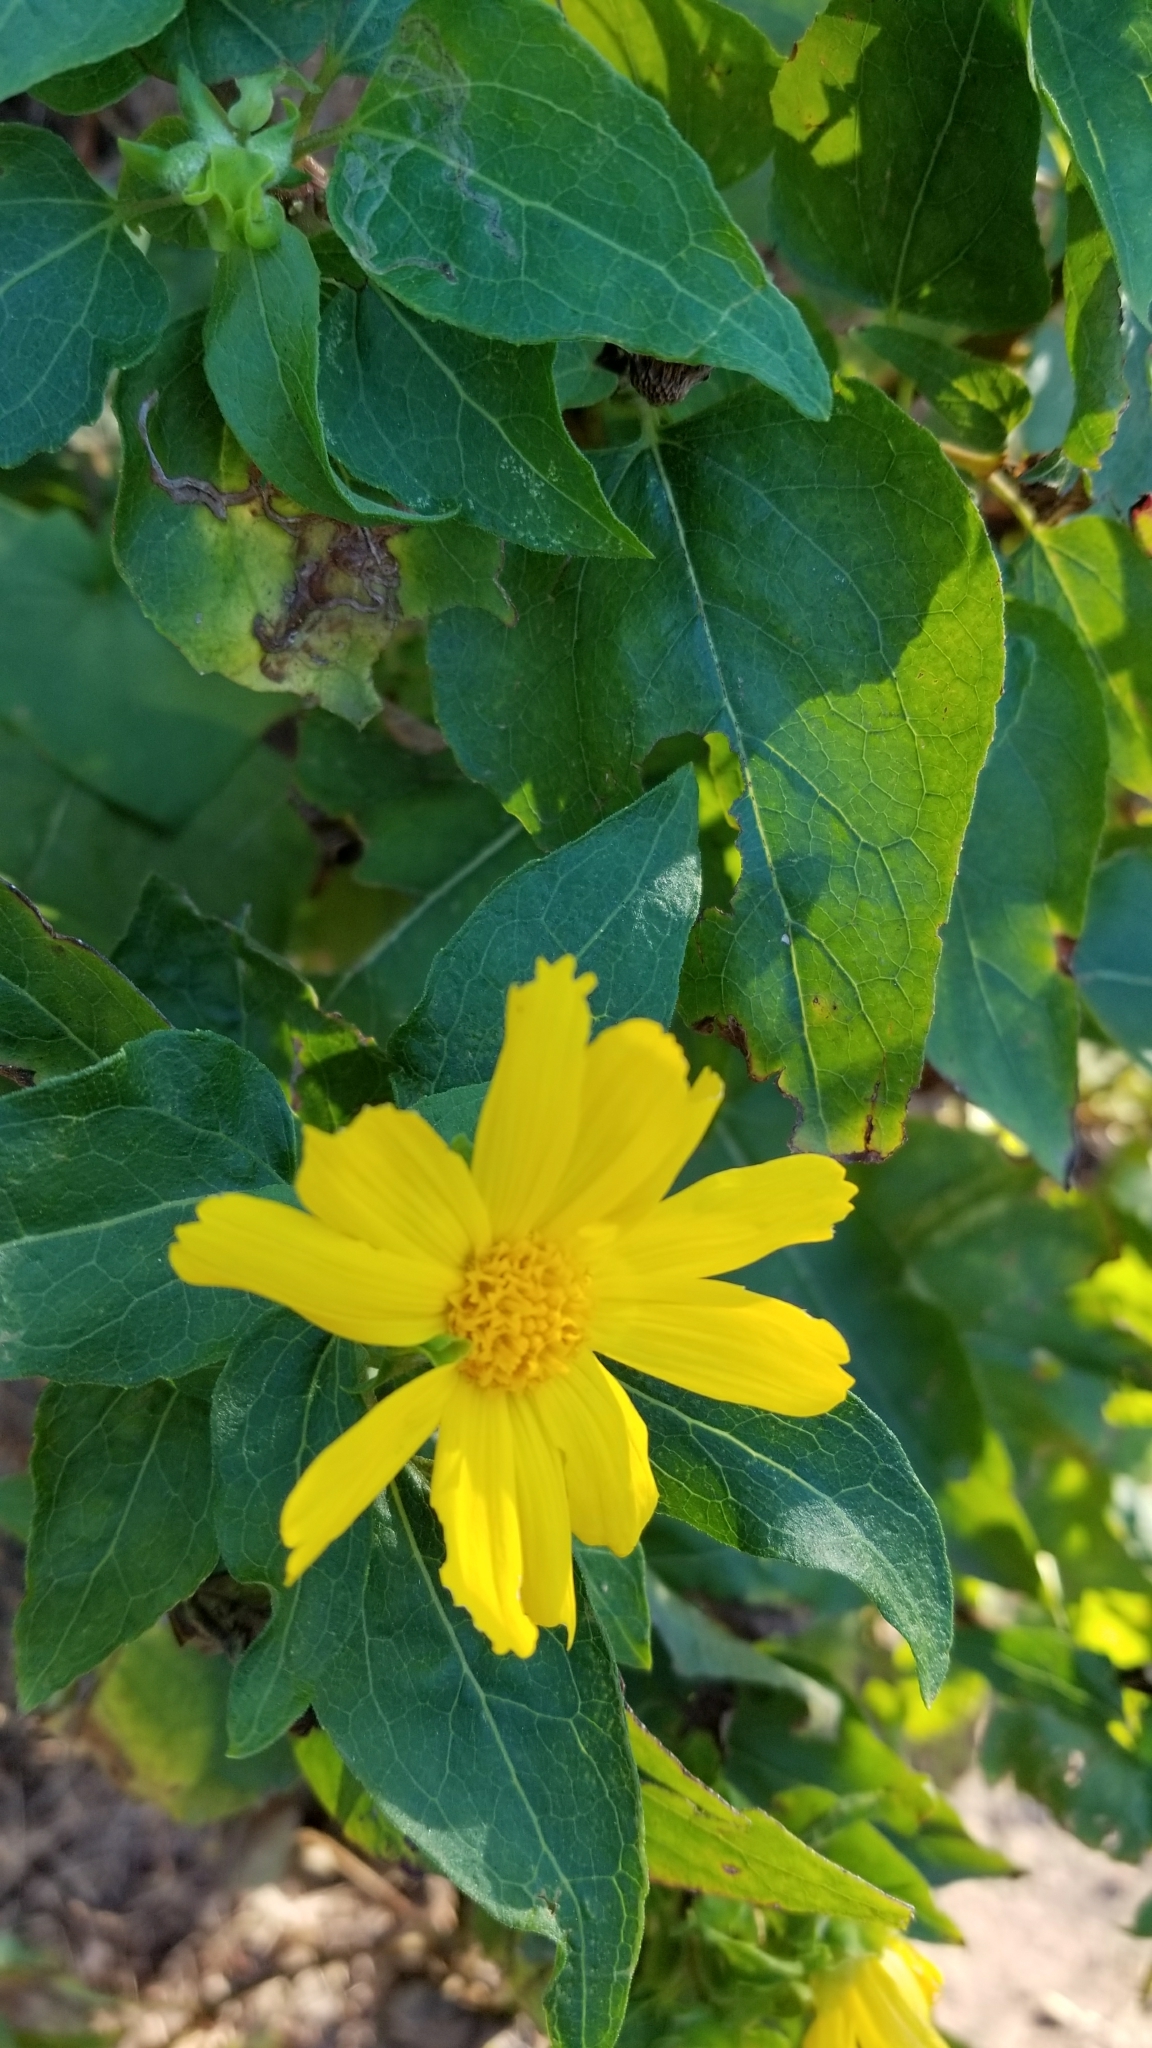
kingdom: Plantae
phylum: Tracheophyta
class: Magnoliopsida
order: Asterales
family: Asteraceae
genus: Venegasia
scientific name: Venegasia carpesioides
